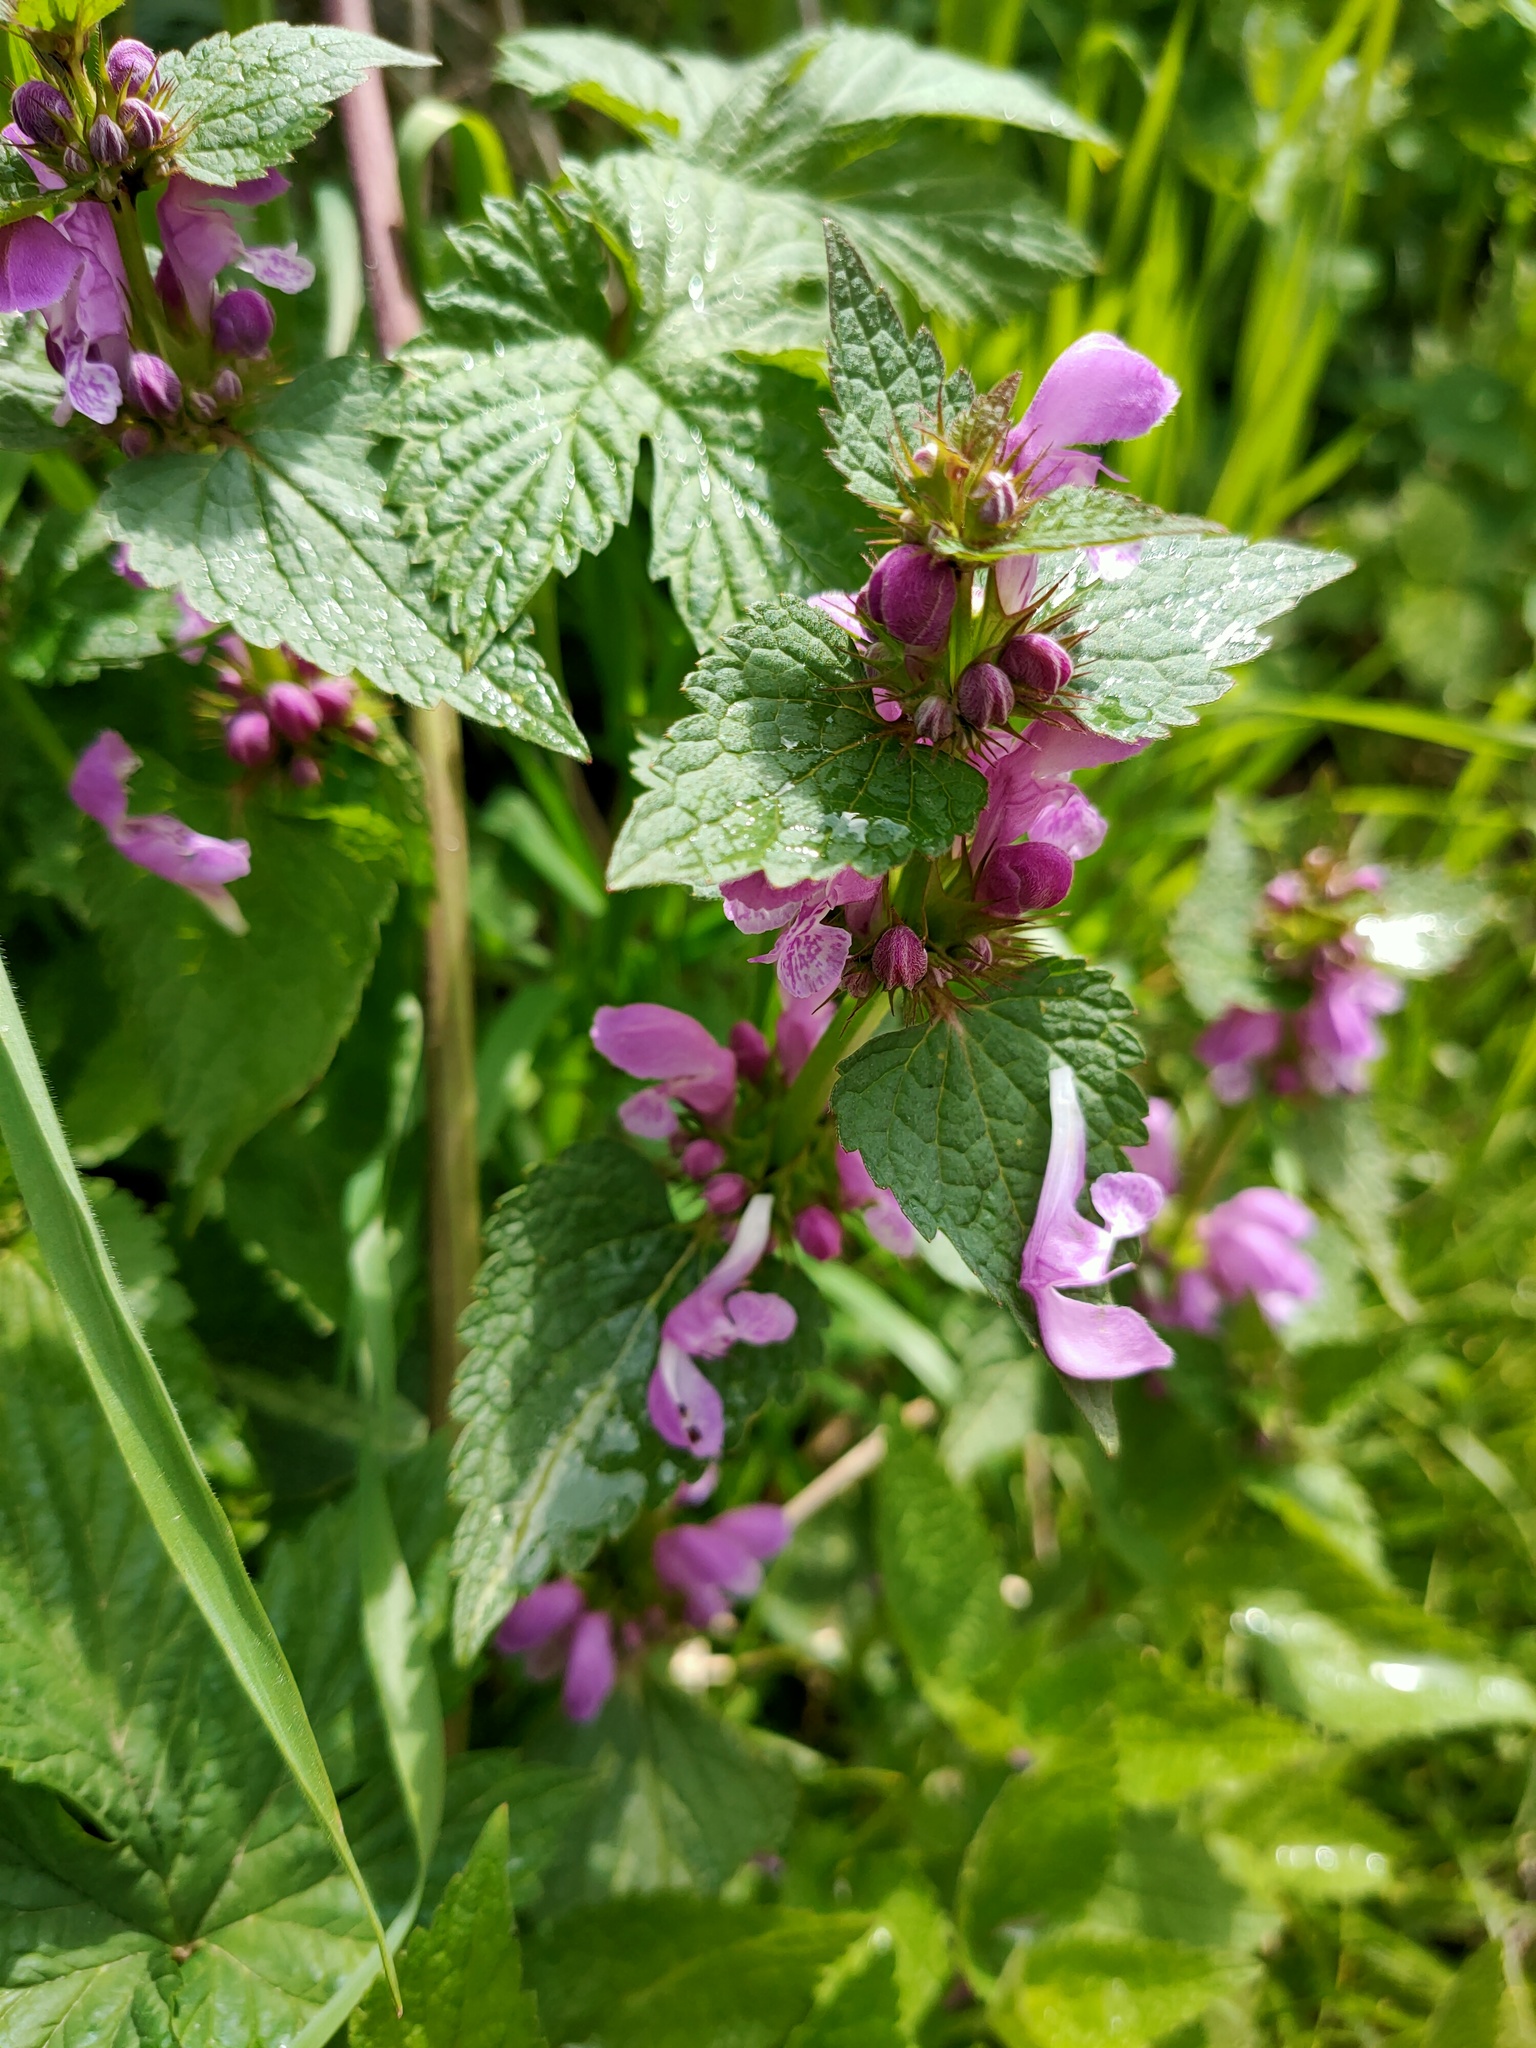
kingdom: Plantae
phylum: Tracheophyta
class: Magnoliopsida
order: Lamiales
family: Lamiaceae
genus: Lamium
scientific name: Lamium maculatum
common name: Spotted dead-nettle
